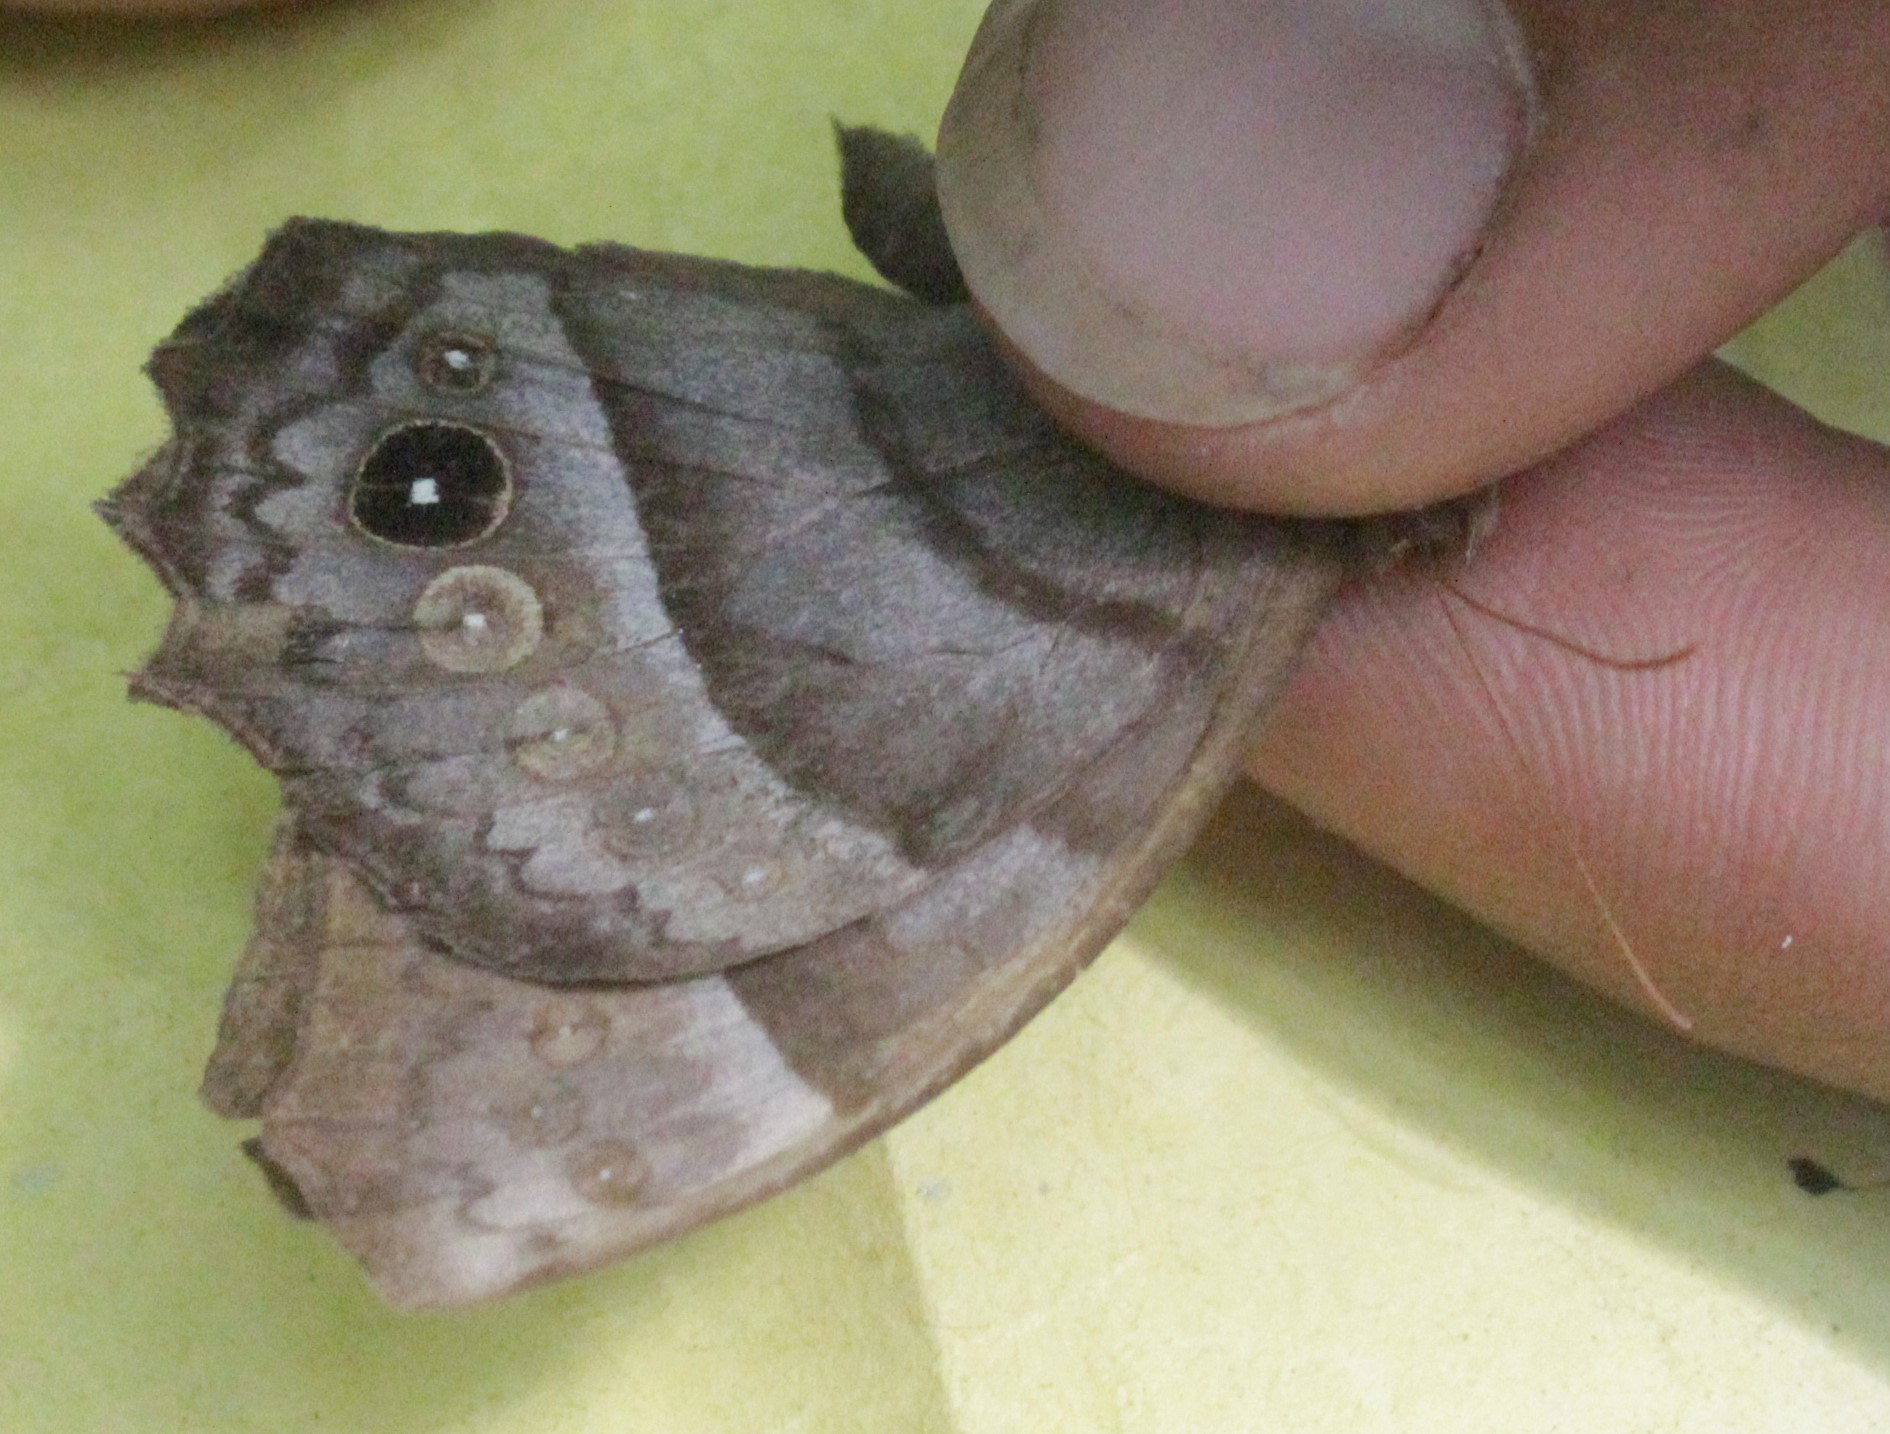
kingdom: Animalia
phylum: Arthropoda
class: Insecta
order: Lepidoptera
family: Nymphalidae
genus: Taygetis
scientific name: Taygetis inconspicua
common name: Inconspicuous satyr
